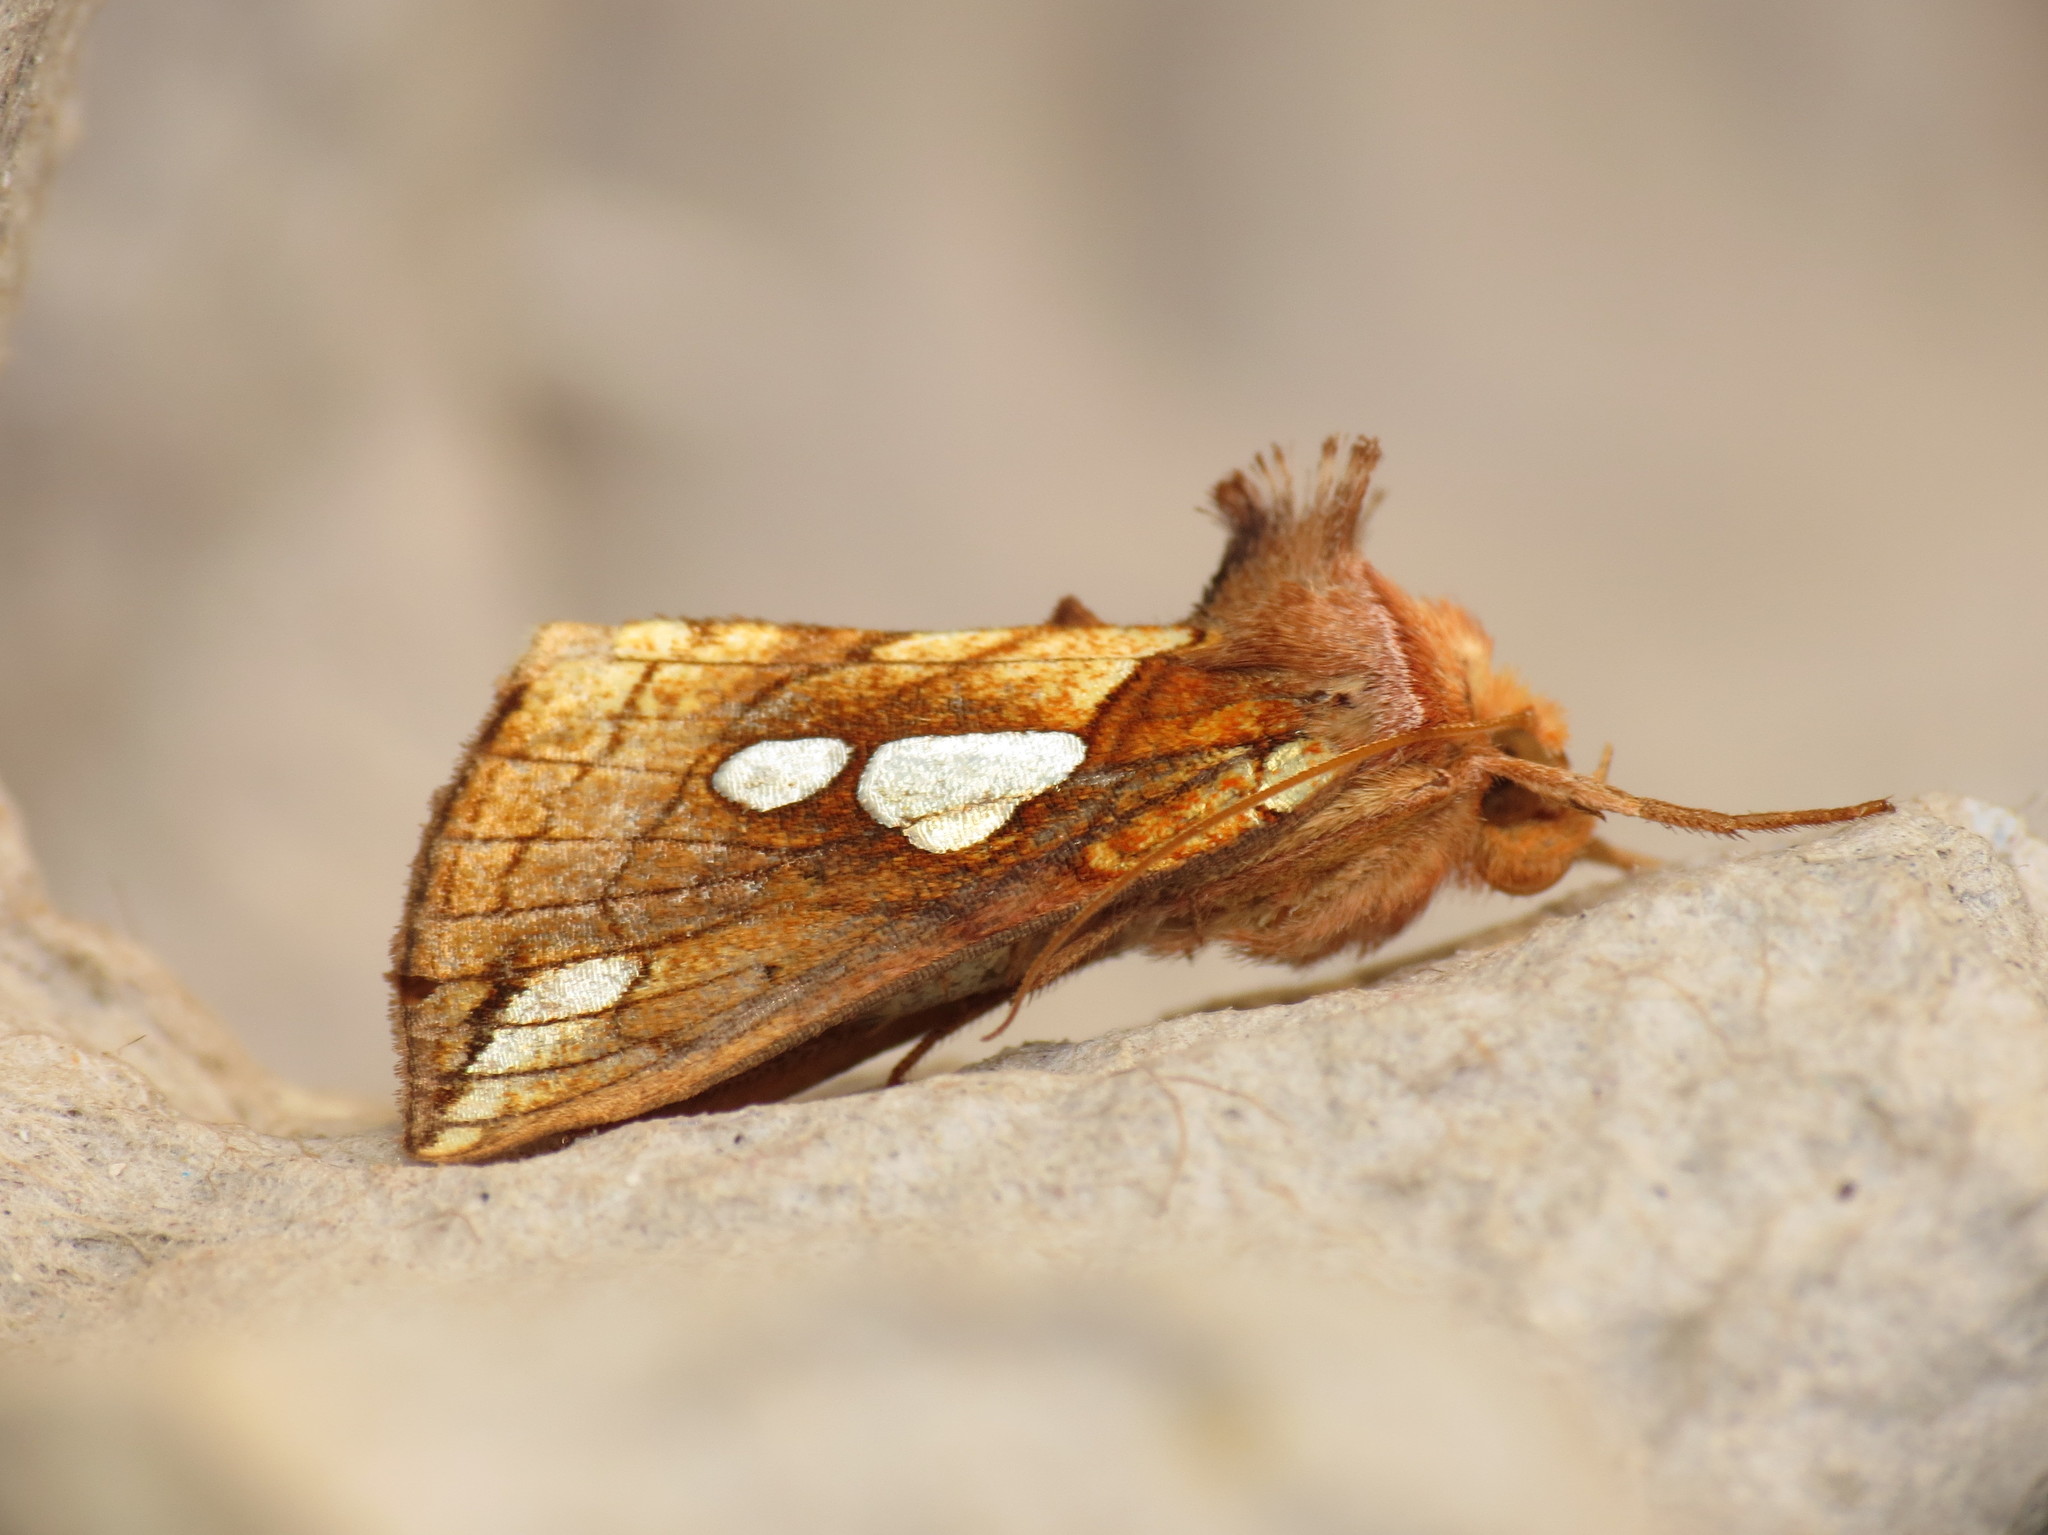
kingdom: Animalia
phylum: Arthropoda
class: Insecta
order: Lepidoptera
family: Noctuidae
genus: Plusia
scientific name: Plusia putnami
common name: Lempke's gold spot
